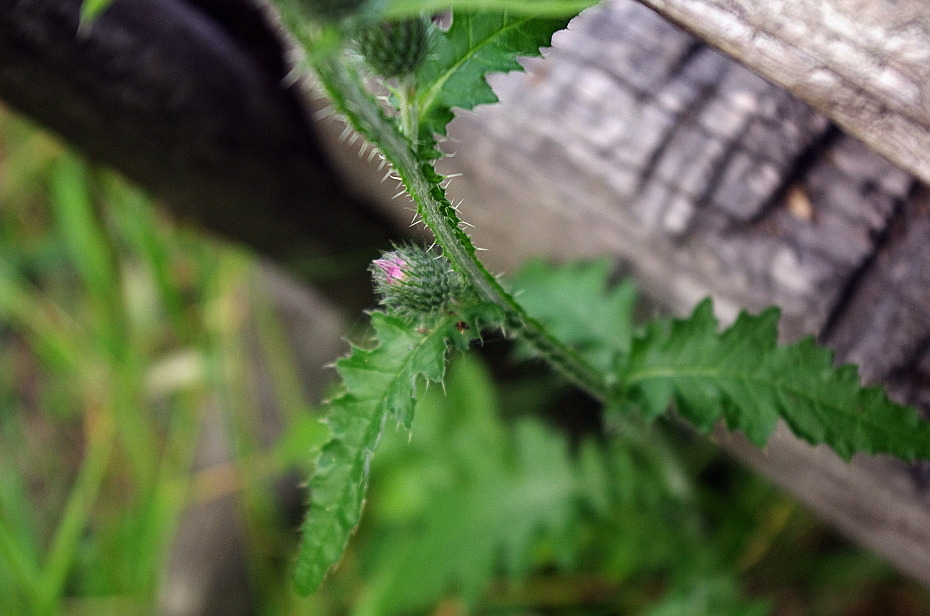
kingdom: Plantae
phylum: Tracheophyta
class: Magnoliopsida
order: Asterales
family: Asteraceae
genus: Carduus
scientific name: Carduus crispus
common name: Welted thistle
